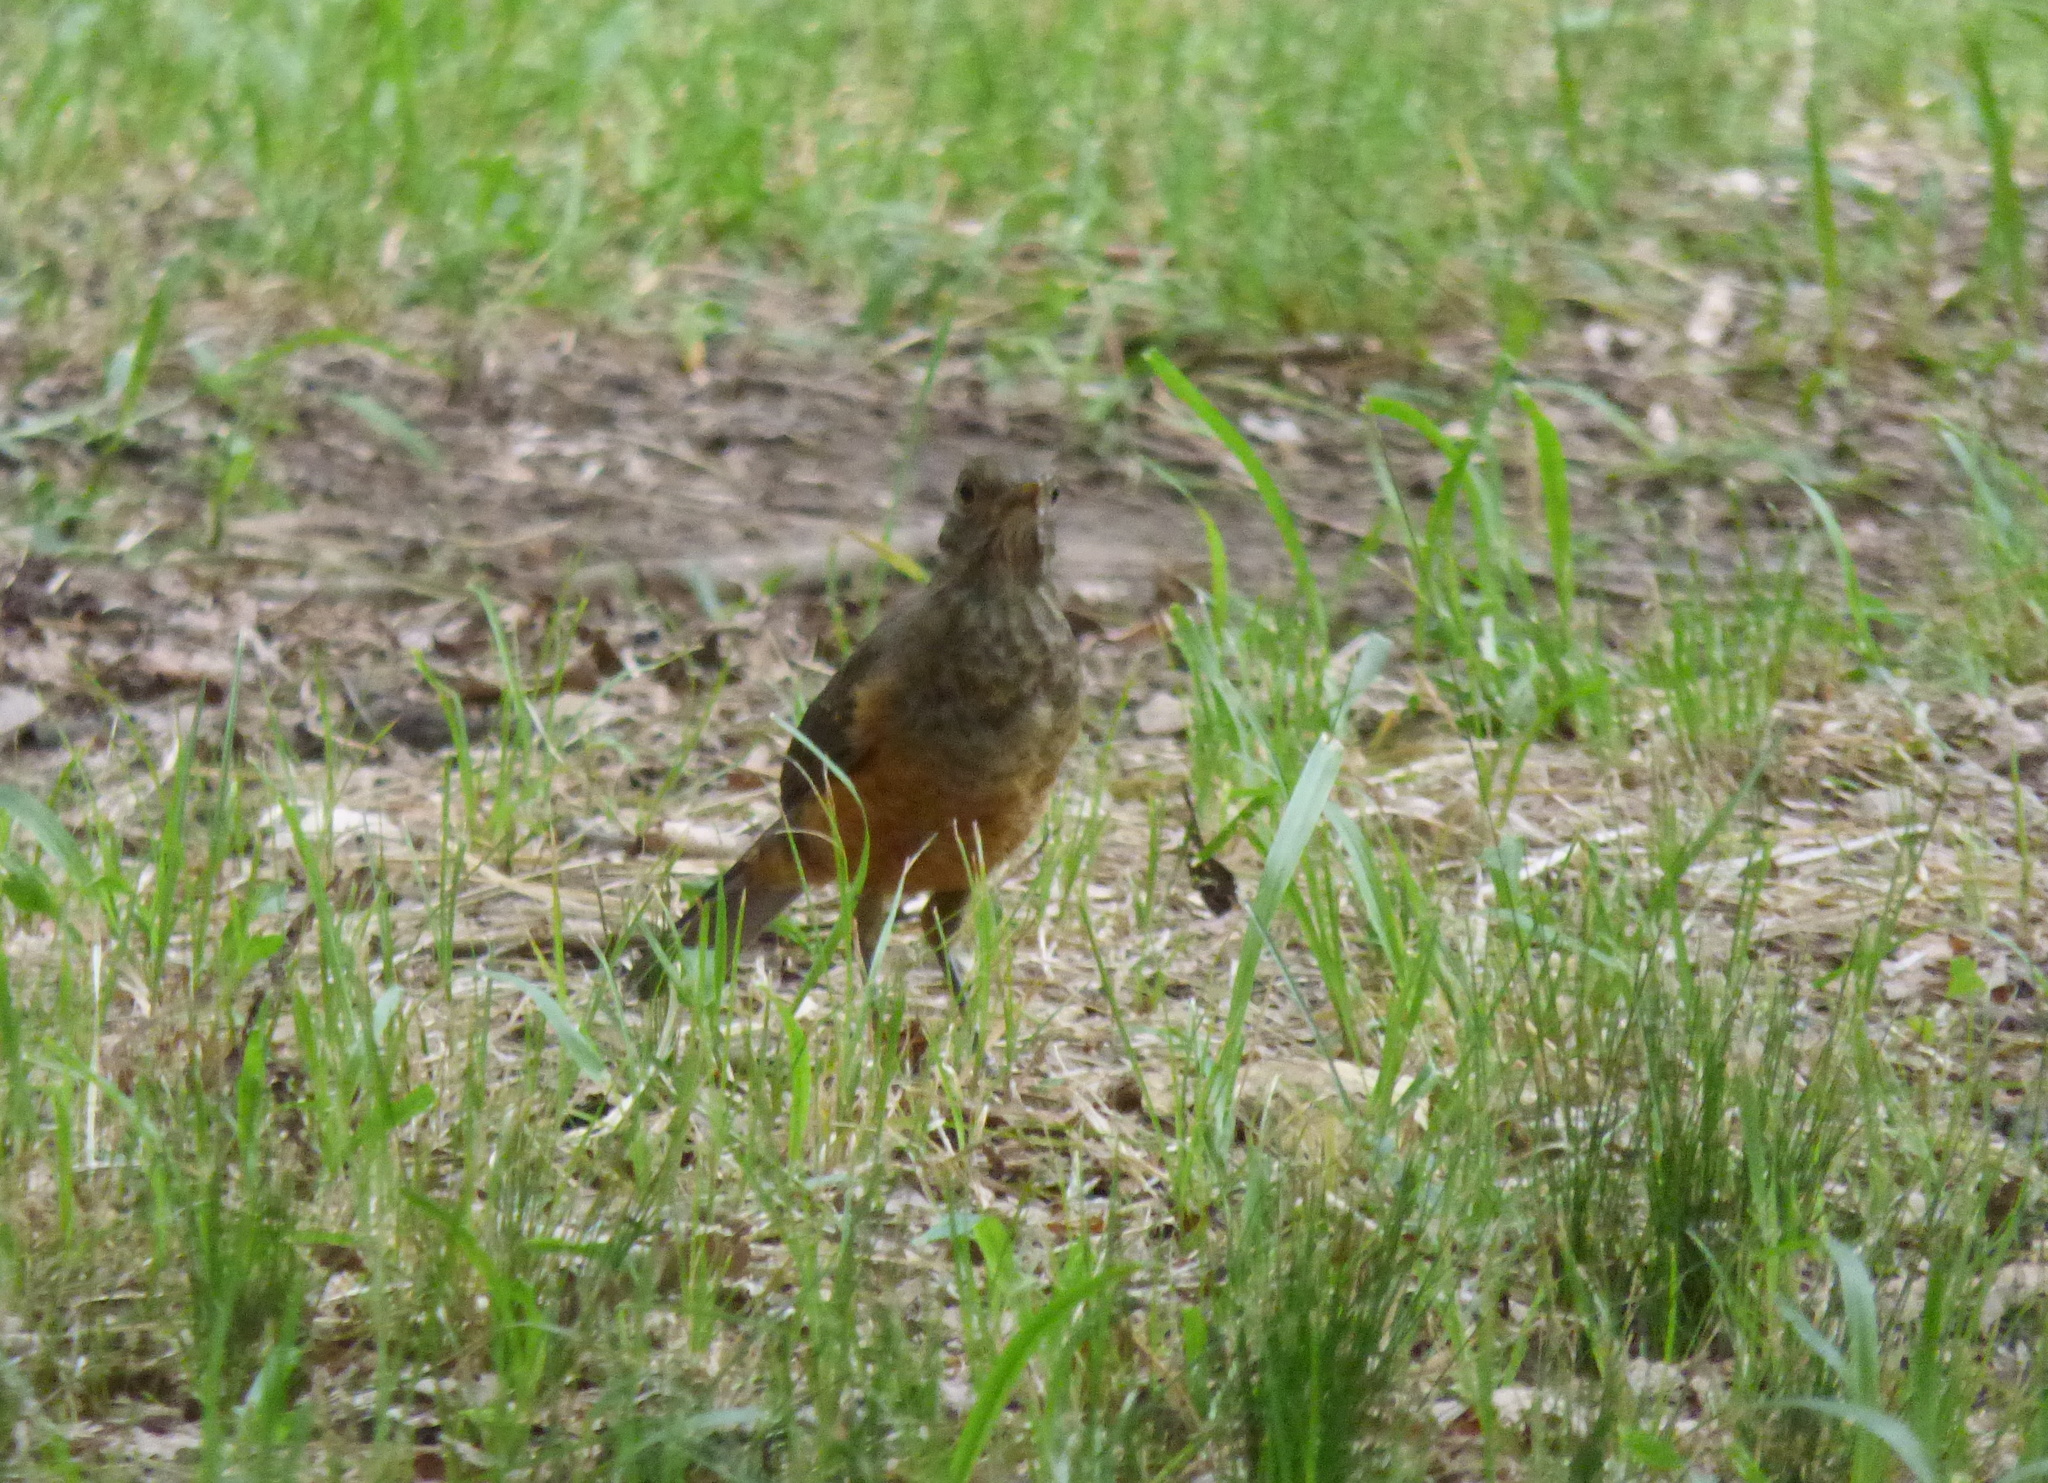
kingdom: Animalia
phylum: Chordata
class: Aves
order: Passeriformes
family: Turdidae
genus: Turdus
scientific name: Turdus rufiventris
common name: Rufous-bellied thrush
